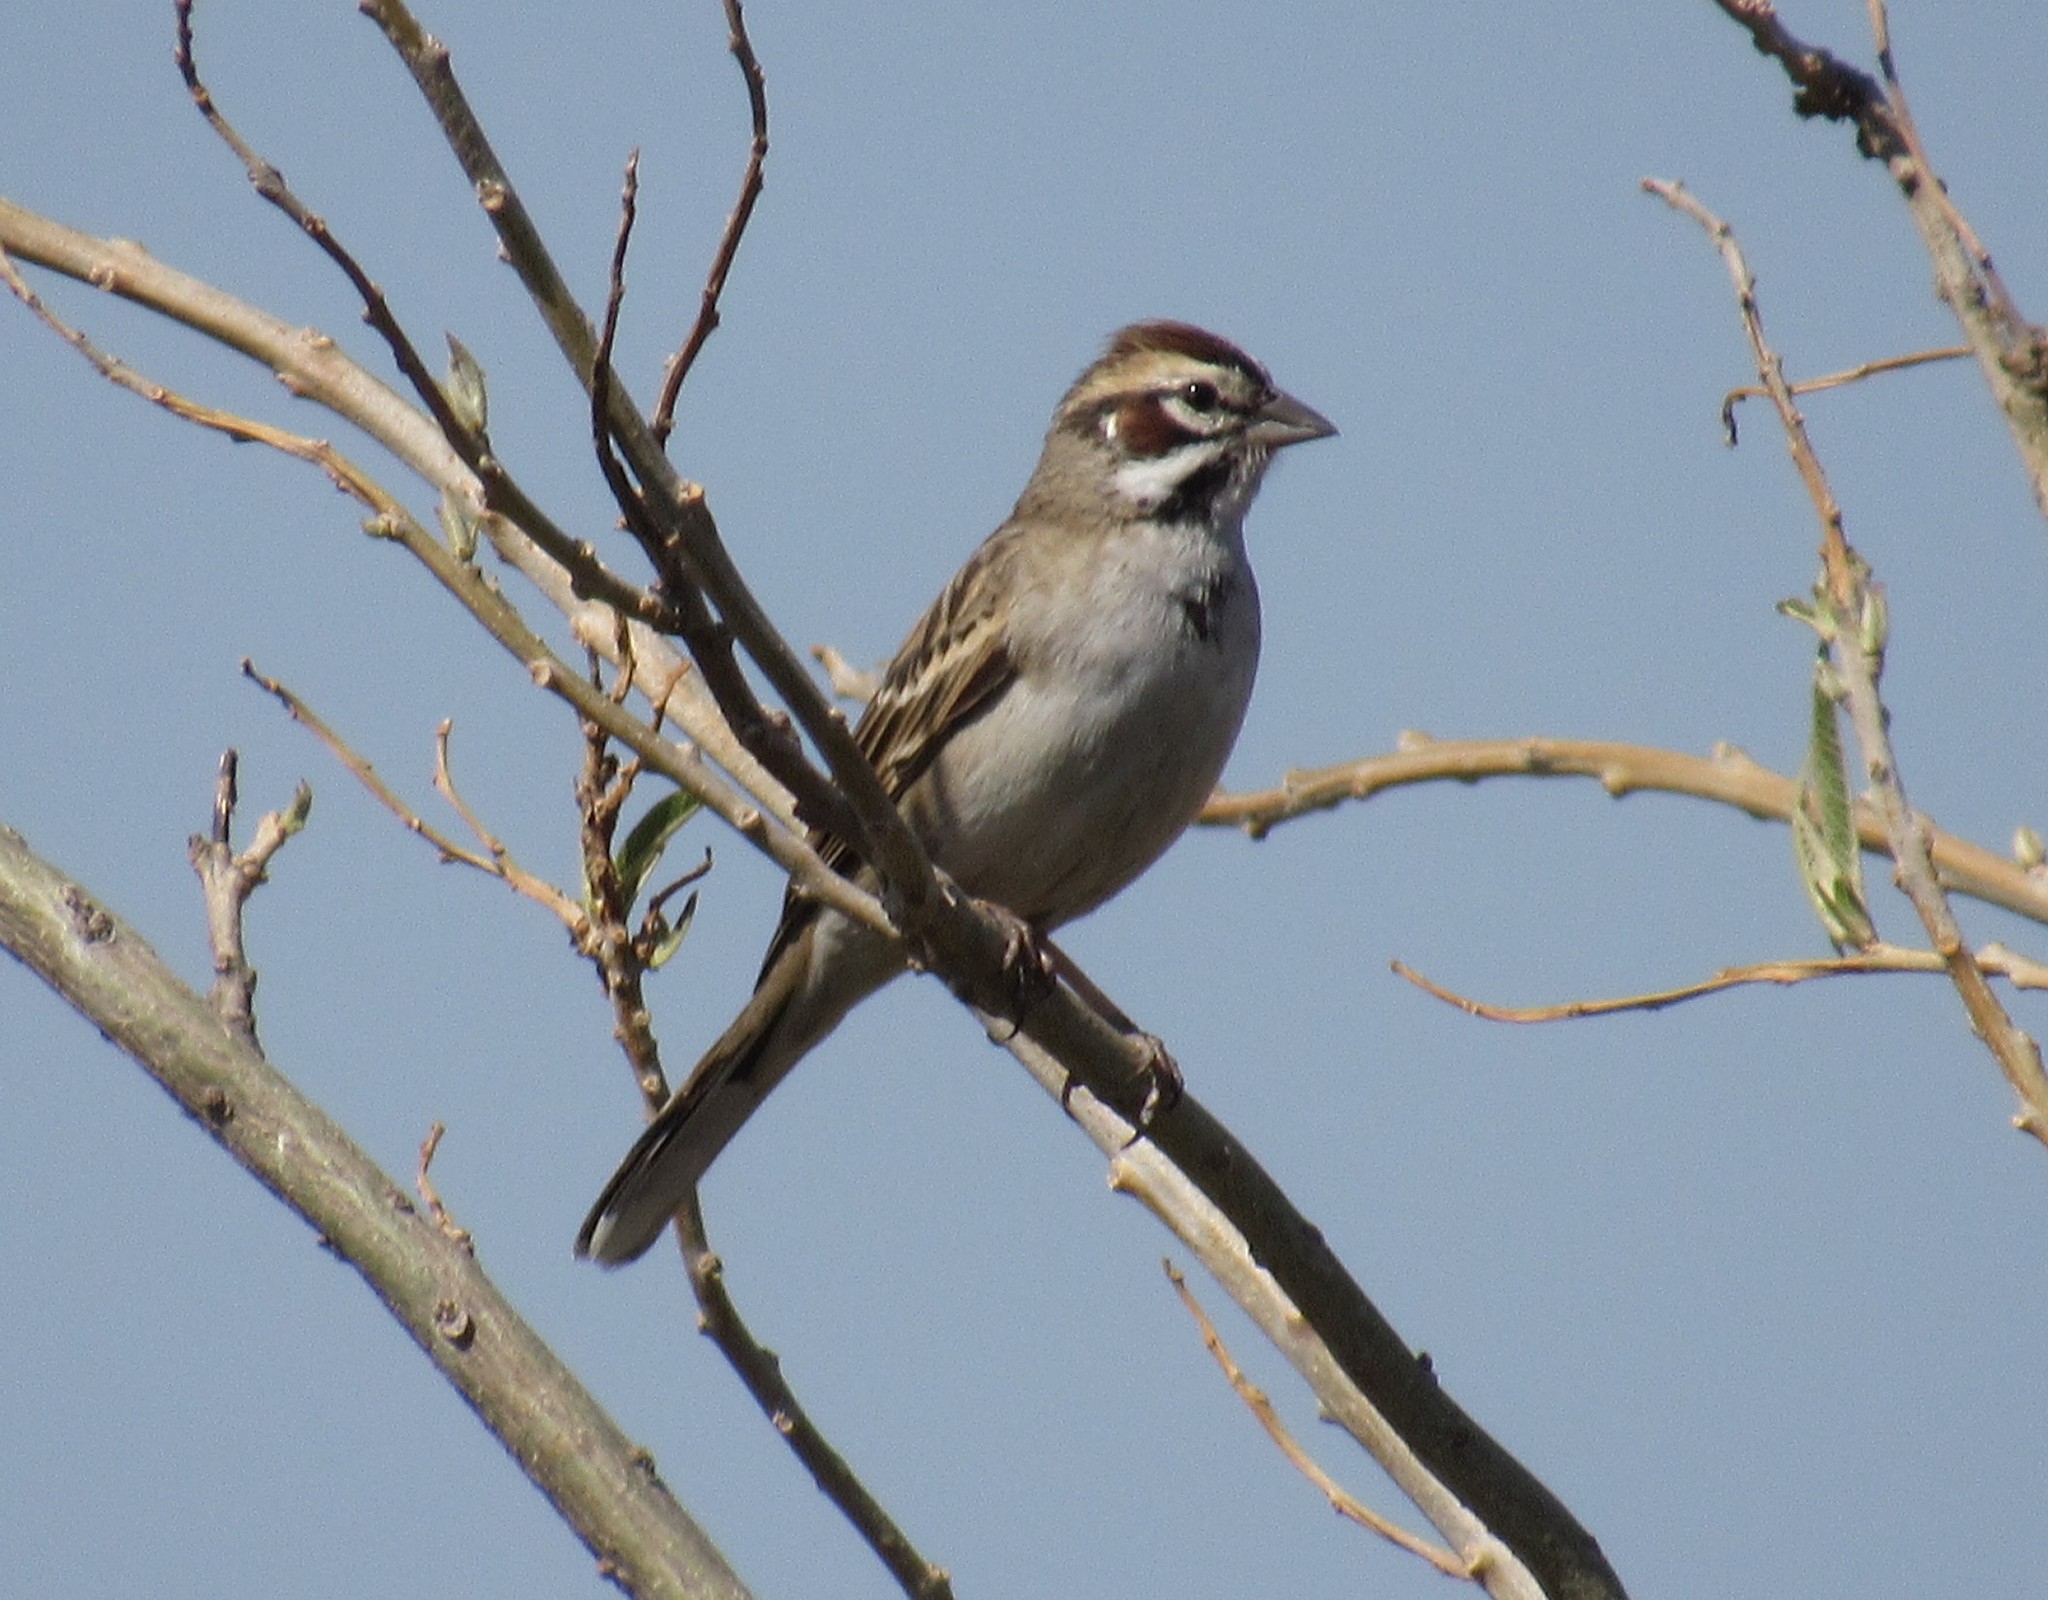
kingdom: Animalia
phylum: Chordata
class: Aves
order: Passeriformes
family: Passerellidae
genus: Chondestes
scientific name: Chondestes grammacus
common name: Lark sparrow
